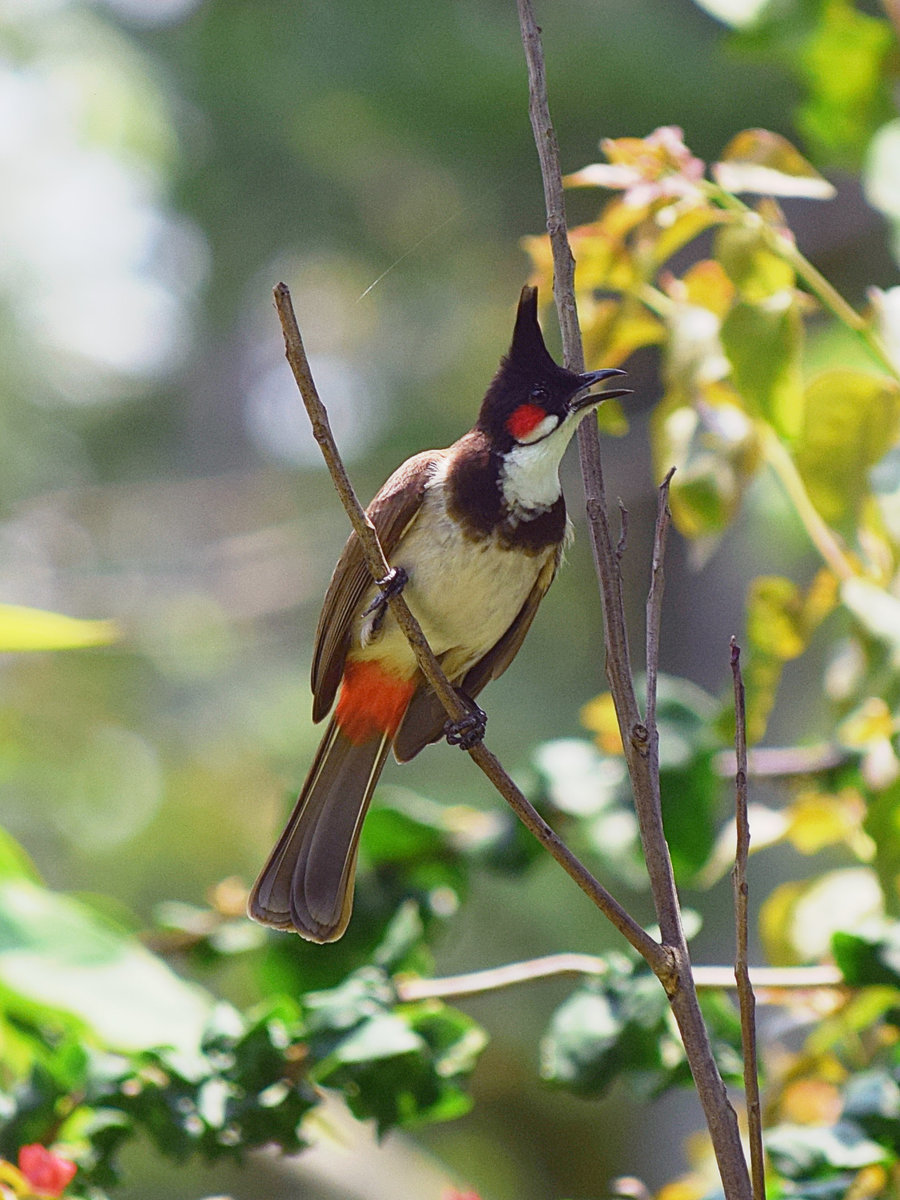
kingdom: Animalia
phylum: Chordata
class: Aves
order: Passeriformes
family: Pycnonotidae
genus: Pycnonotus
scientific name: Pycnonotus jocosus
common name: Red-whiskered bulbul
